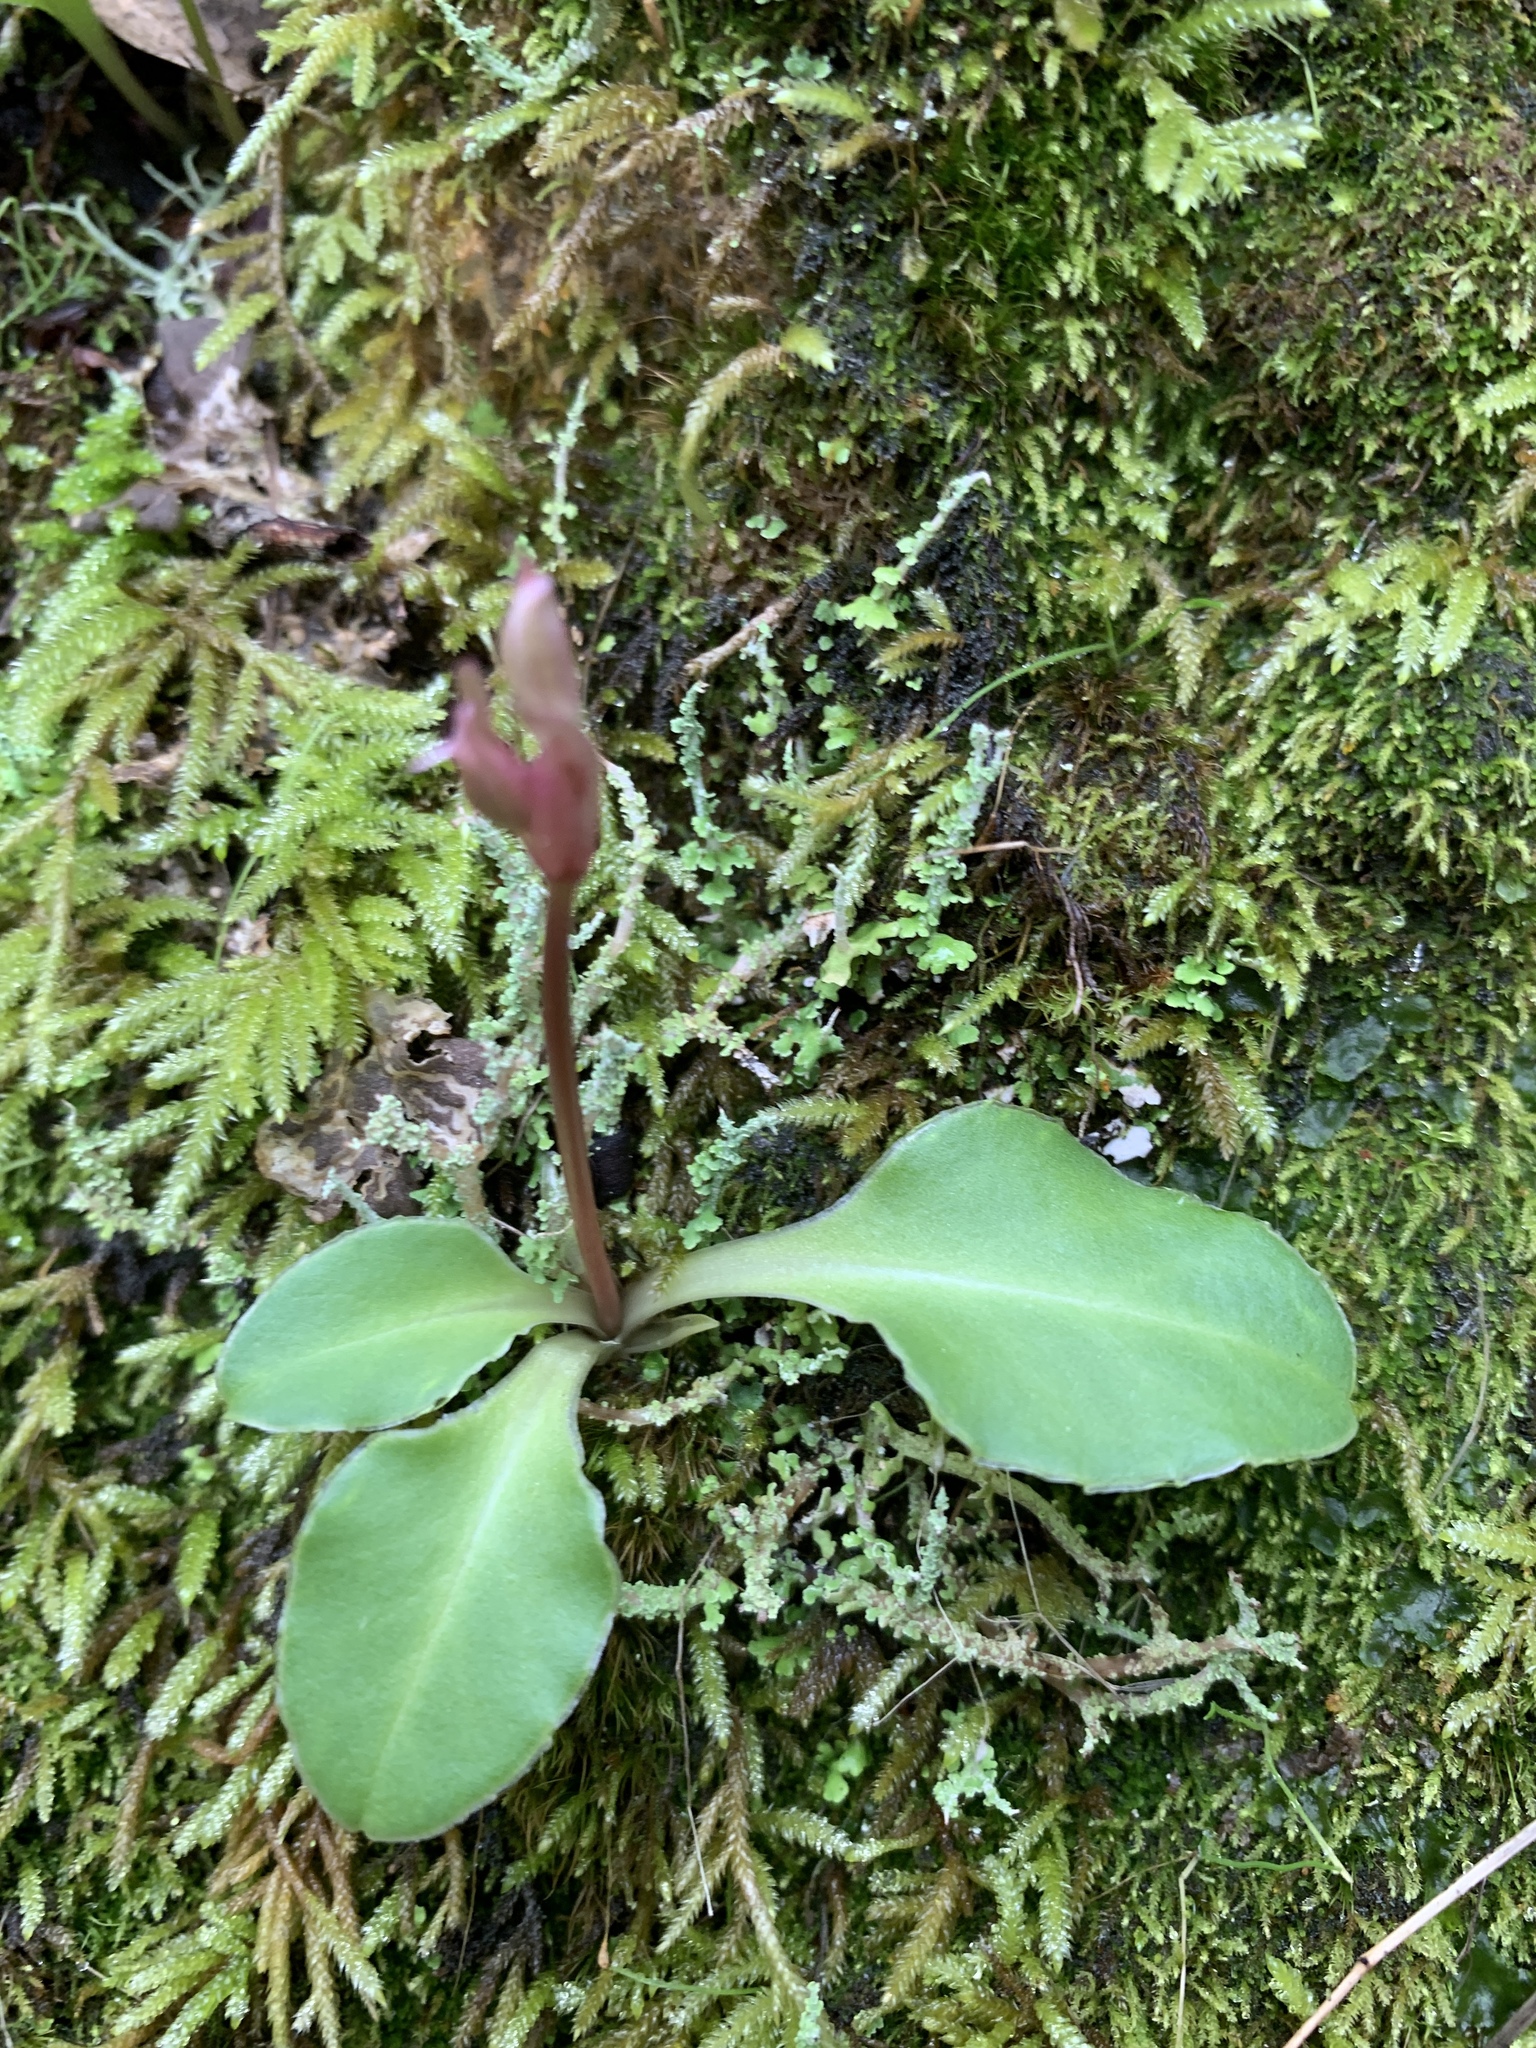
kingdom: Plantae
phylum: Tracheophyta
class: Magnoliopsida
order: Ericales
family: Primulaceae
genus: Dodecatheon
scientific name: Dodecatheon hendersonii
